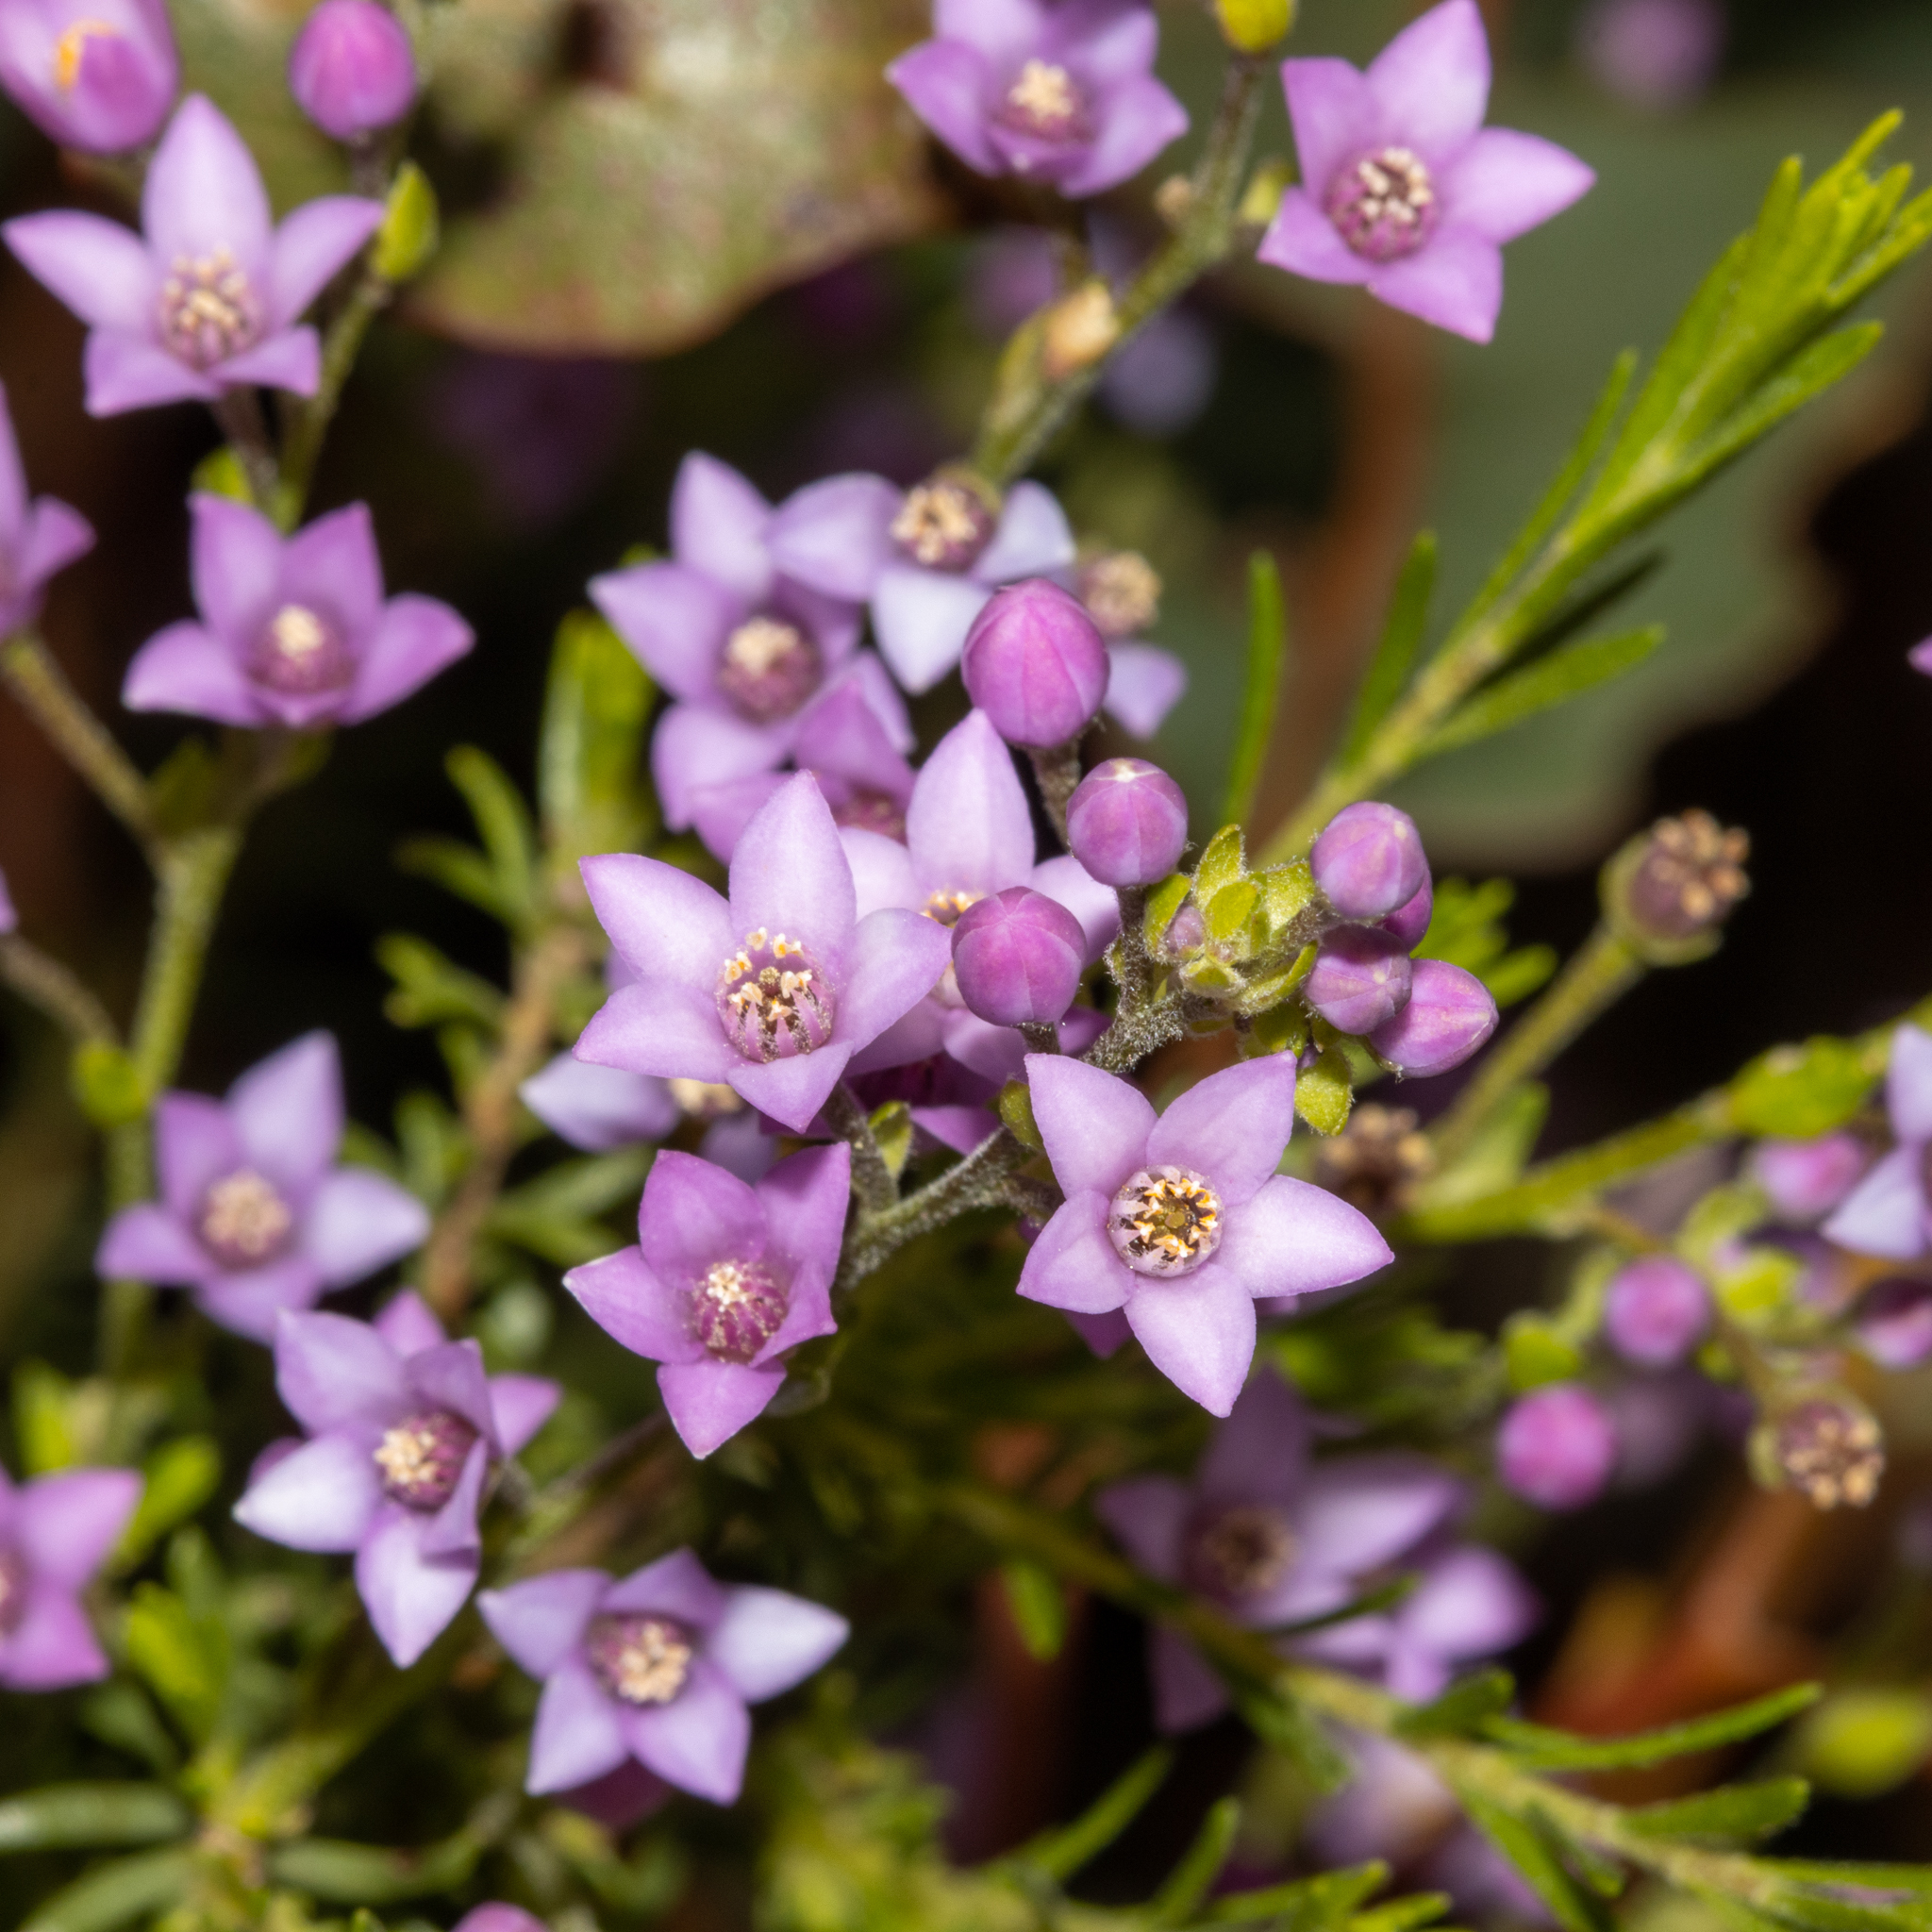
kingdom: Plantae
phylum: Tracheophyta
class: Magnoliopsida
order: Sapindales
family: Rutaceae
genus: Philotheca
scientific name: Philotheca spicata
